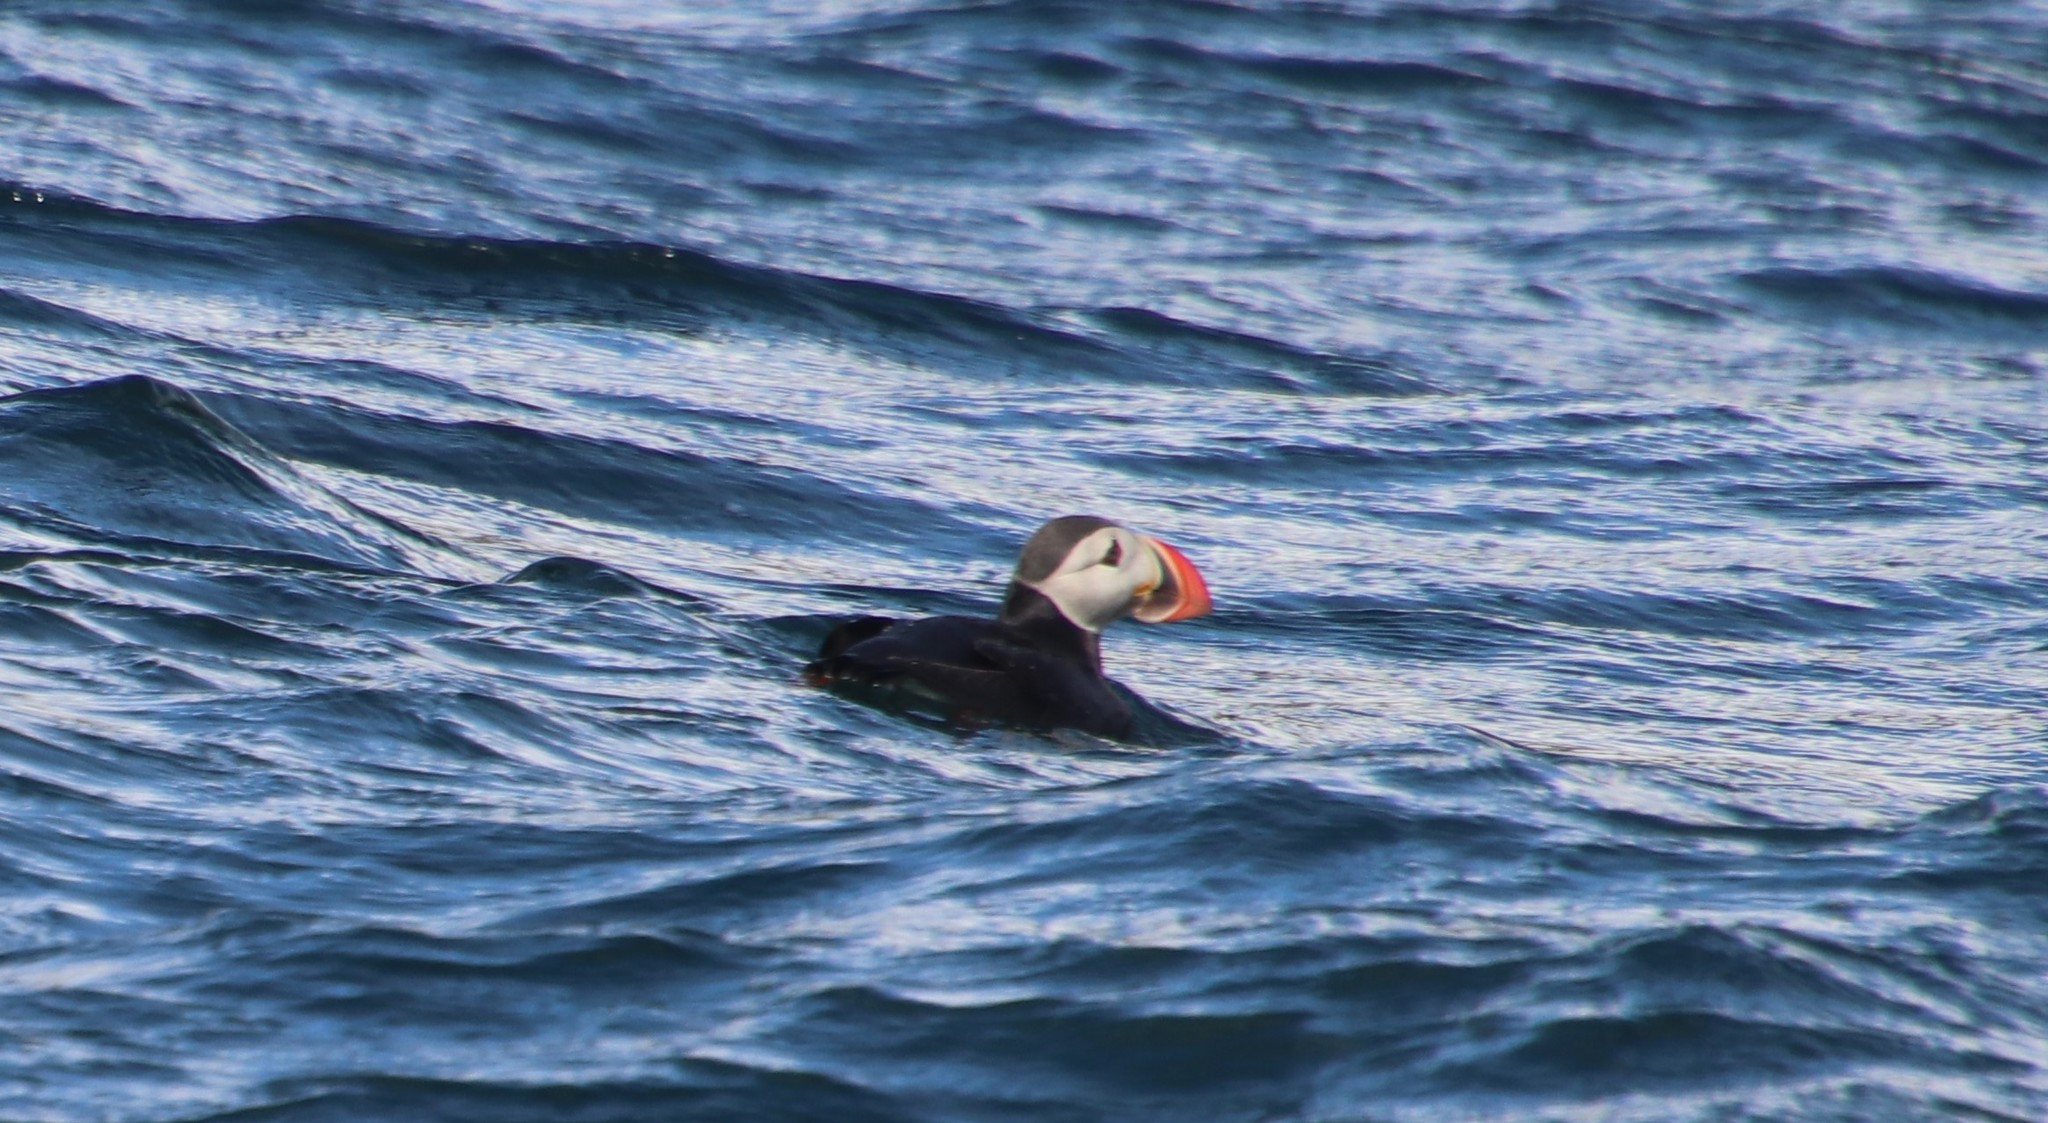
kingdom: Animalia
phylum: Chordata
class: Aves
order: Charadriiformes
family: Alcidae
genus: Fratercula
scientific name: Fratercula arctica
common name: Atlantic puffin
